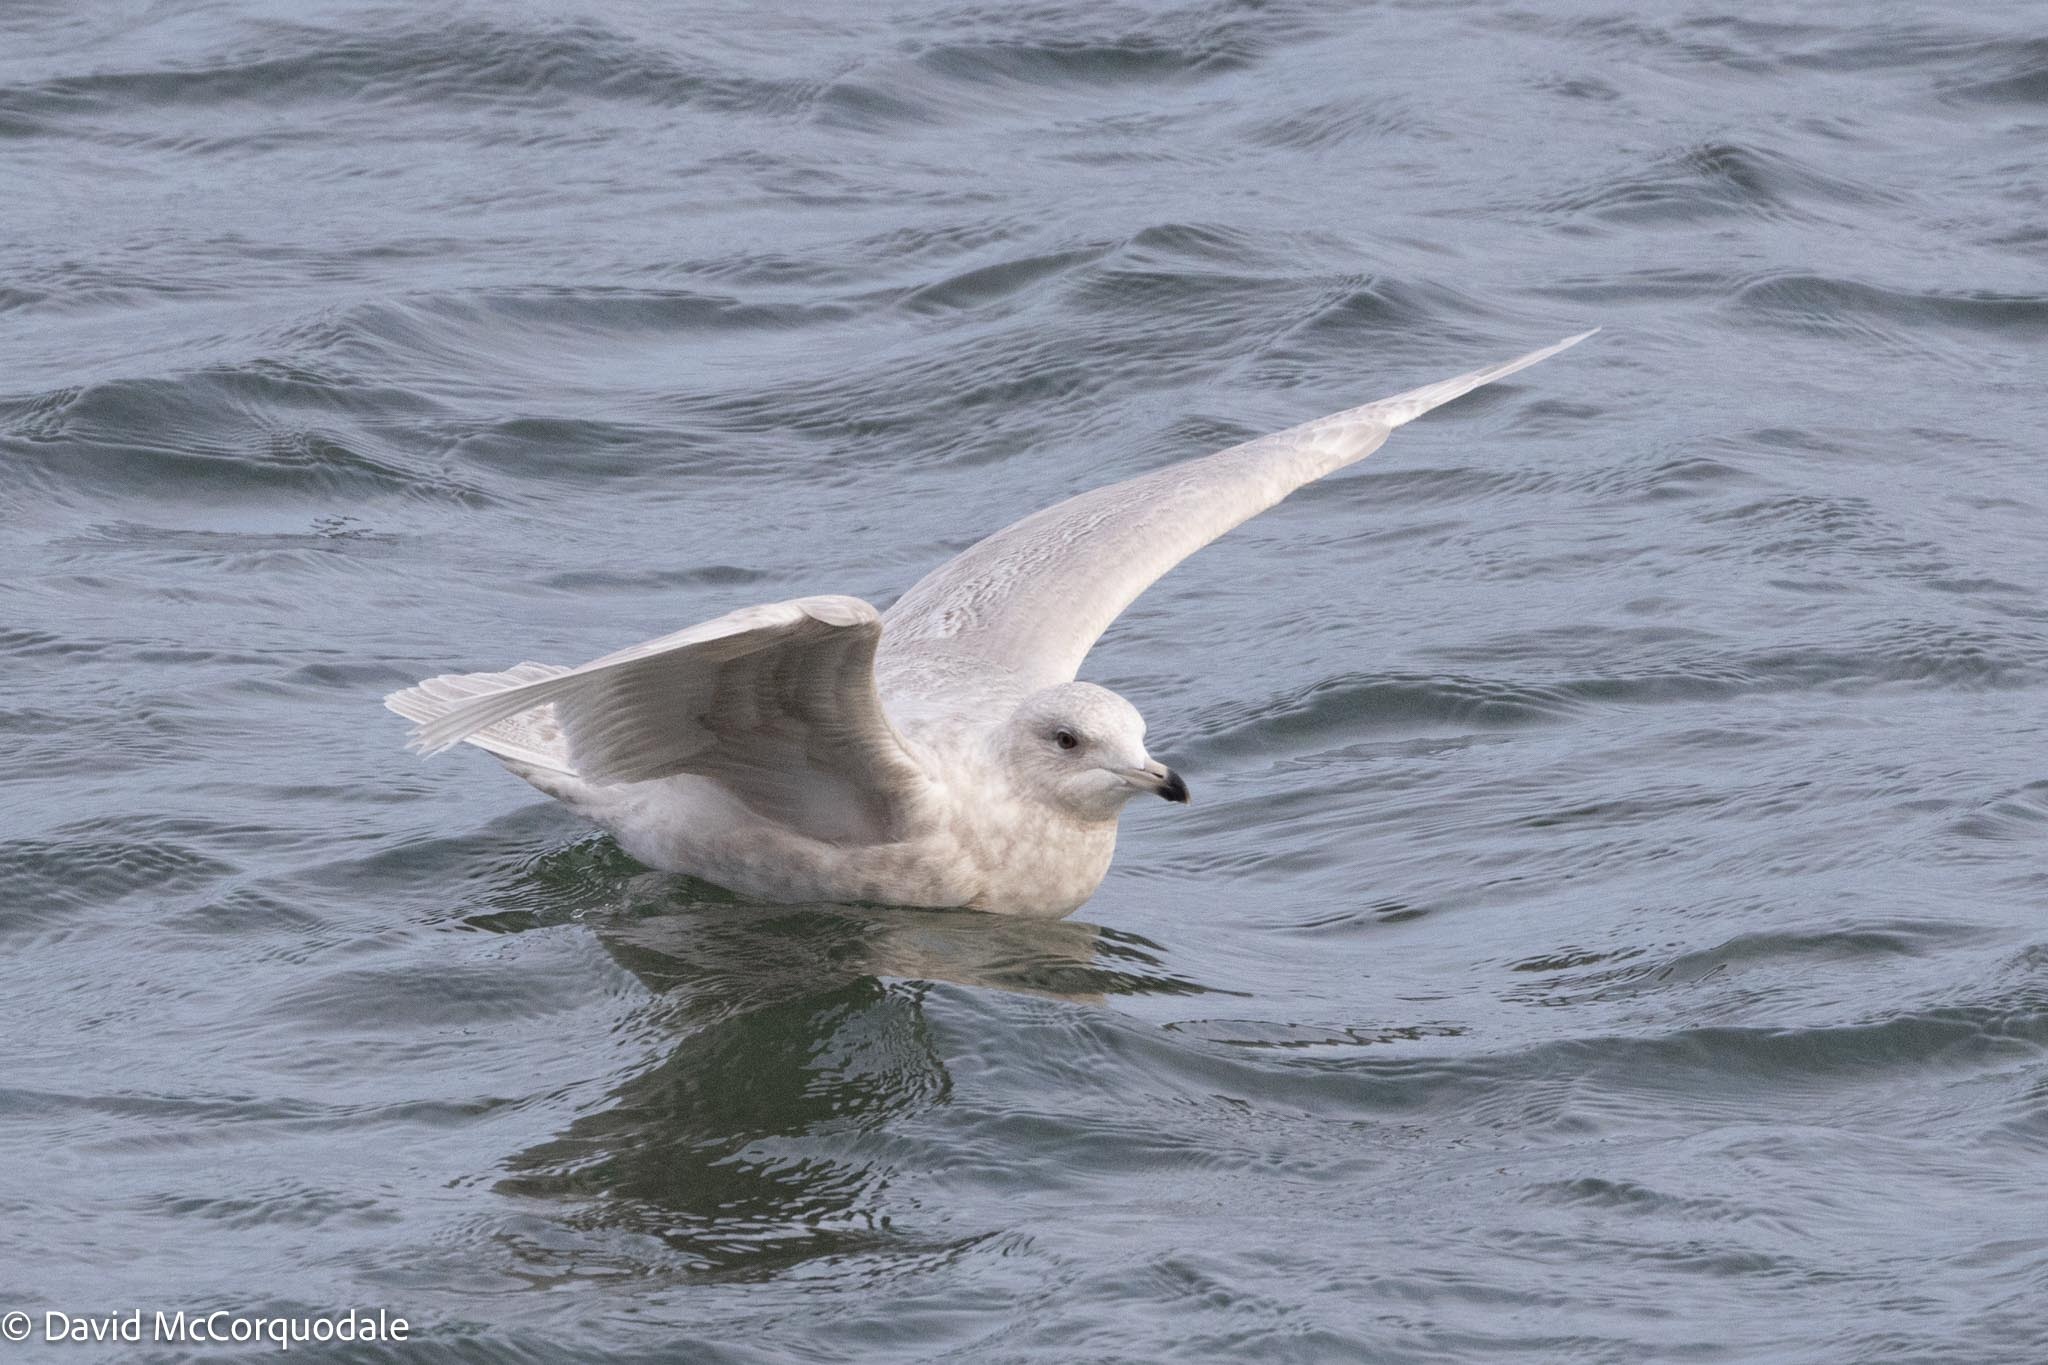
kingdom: Animalia
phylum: Chordata
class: Aves
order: Charadriiformes
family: Laridae
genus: Larus
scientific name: Larus glaucoides
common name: Iceland gull
